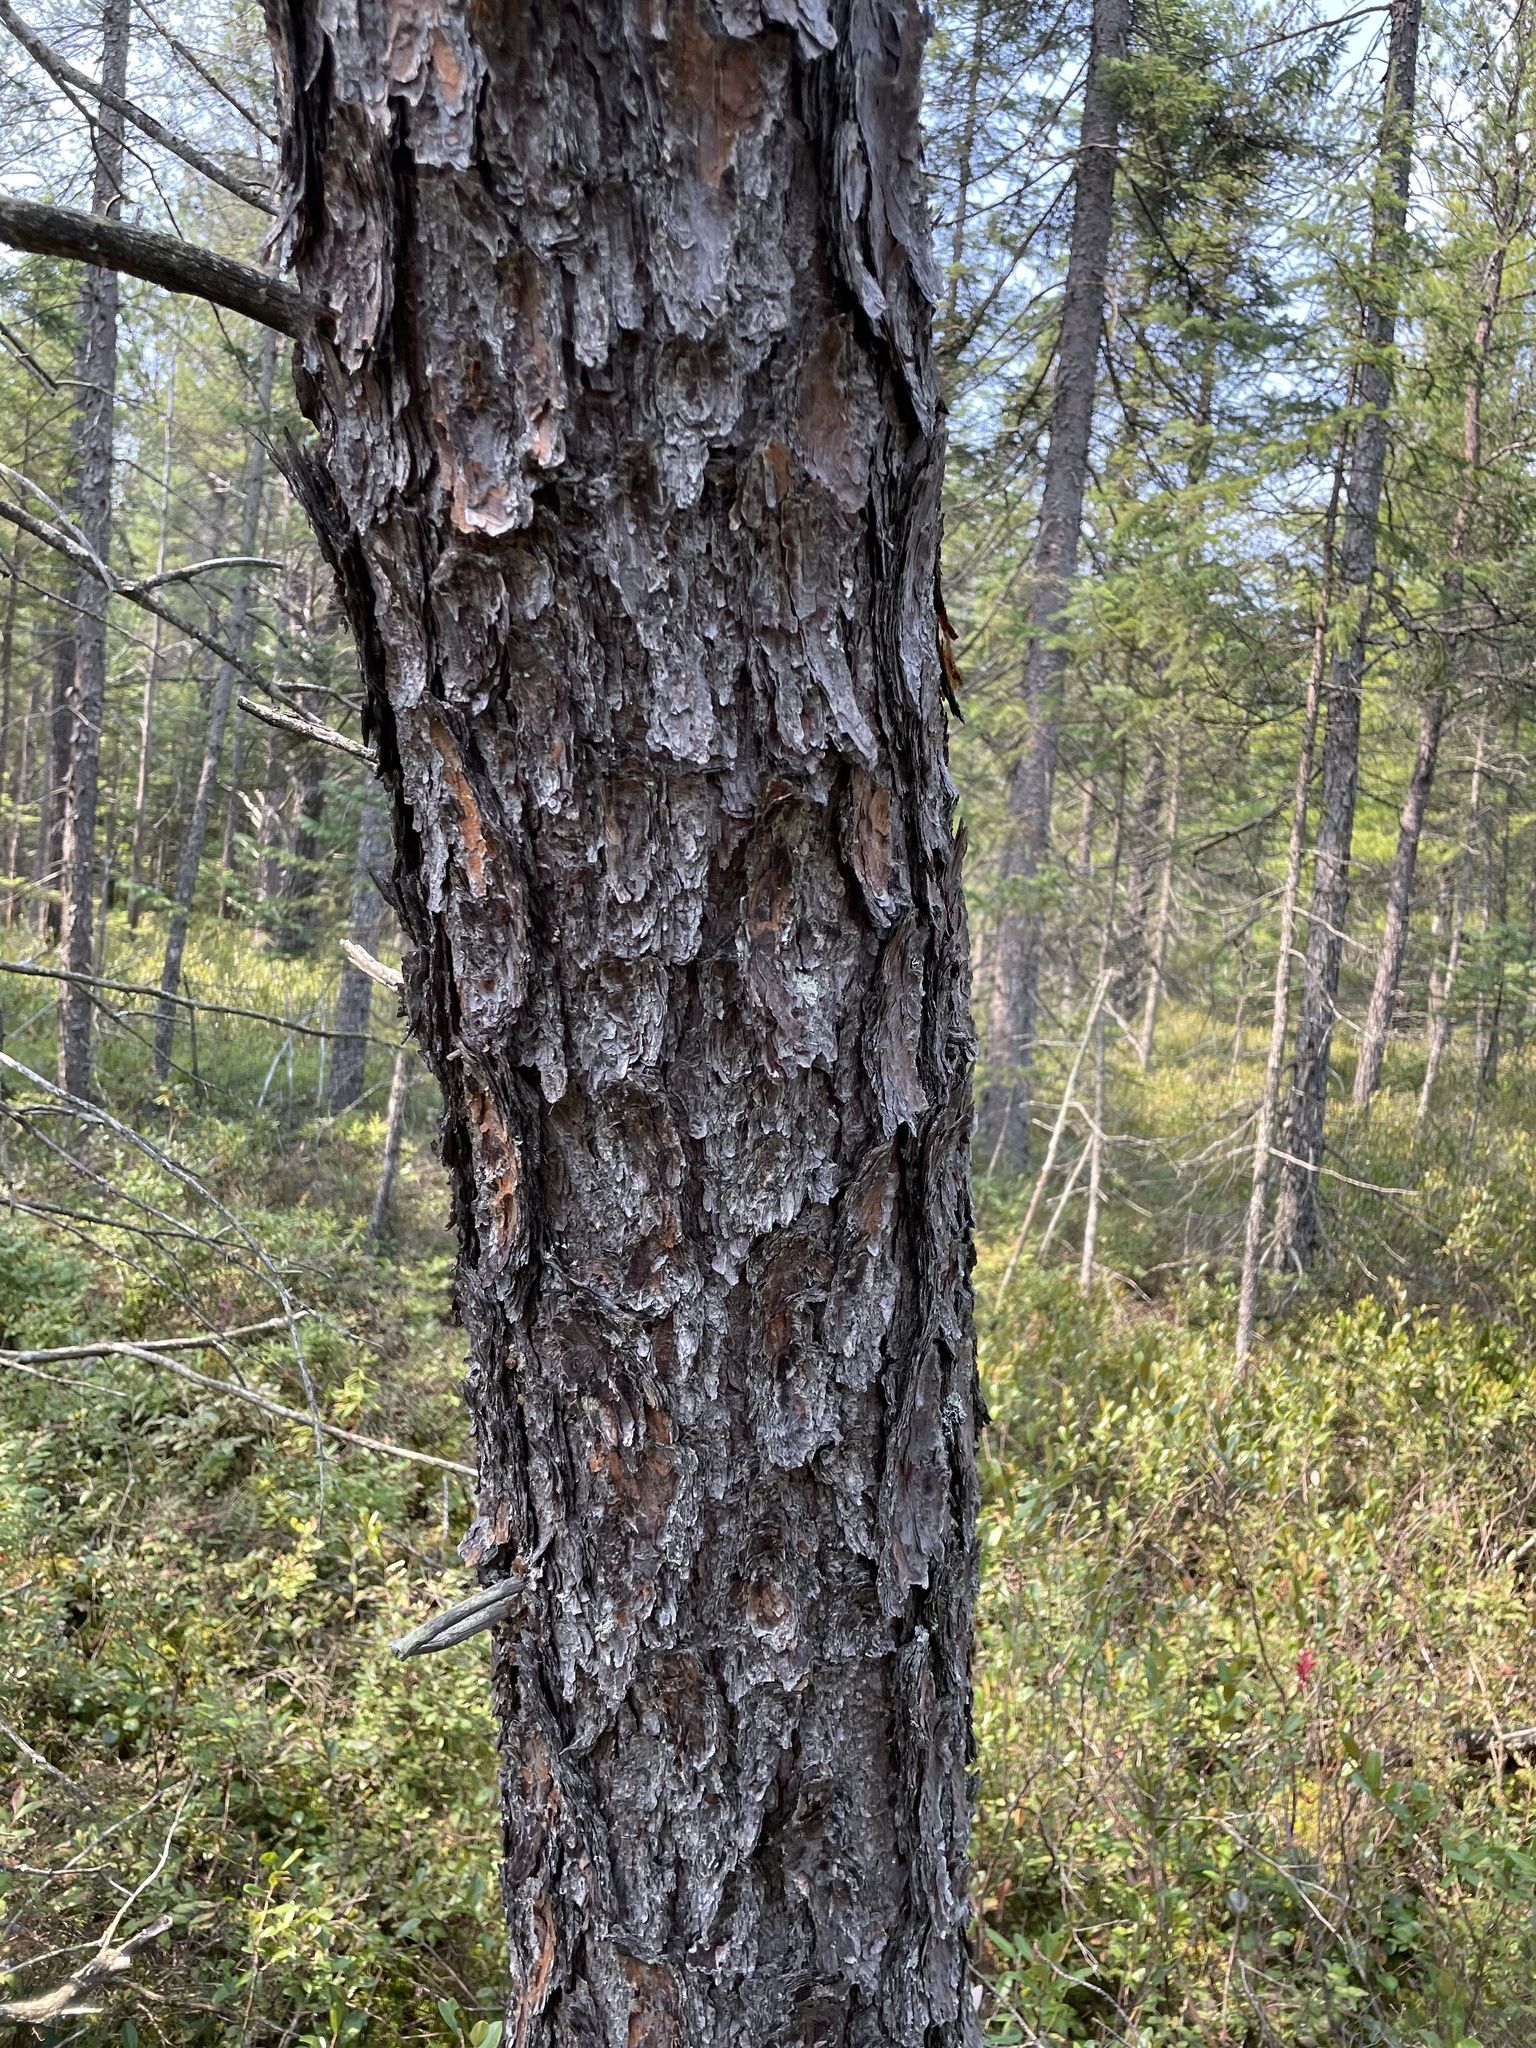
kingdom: Plantae
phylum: Tracheophyta
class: Pinopsida
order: Pinales
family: Pinaceae
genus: Pinus
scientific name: Pinus banksiana
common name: Jack pine
